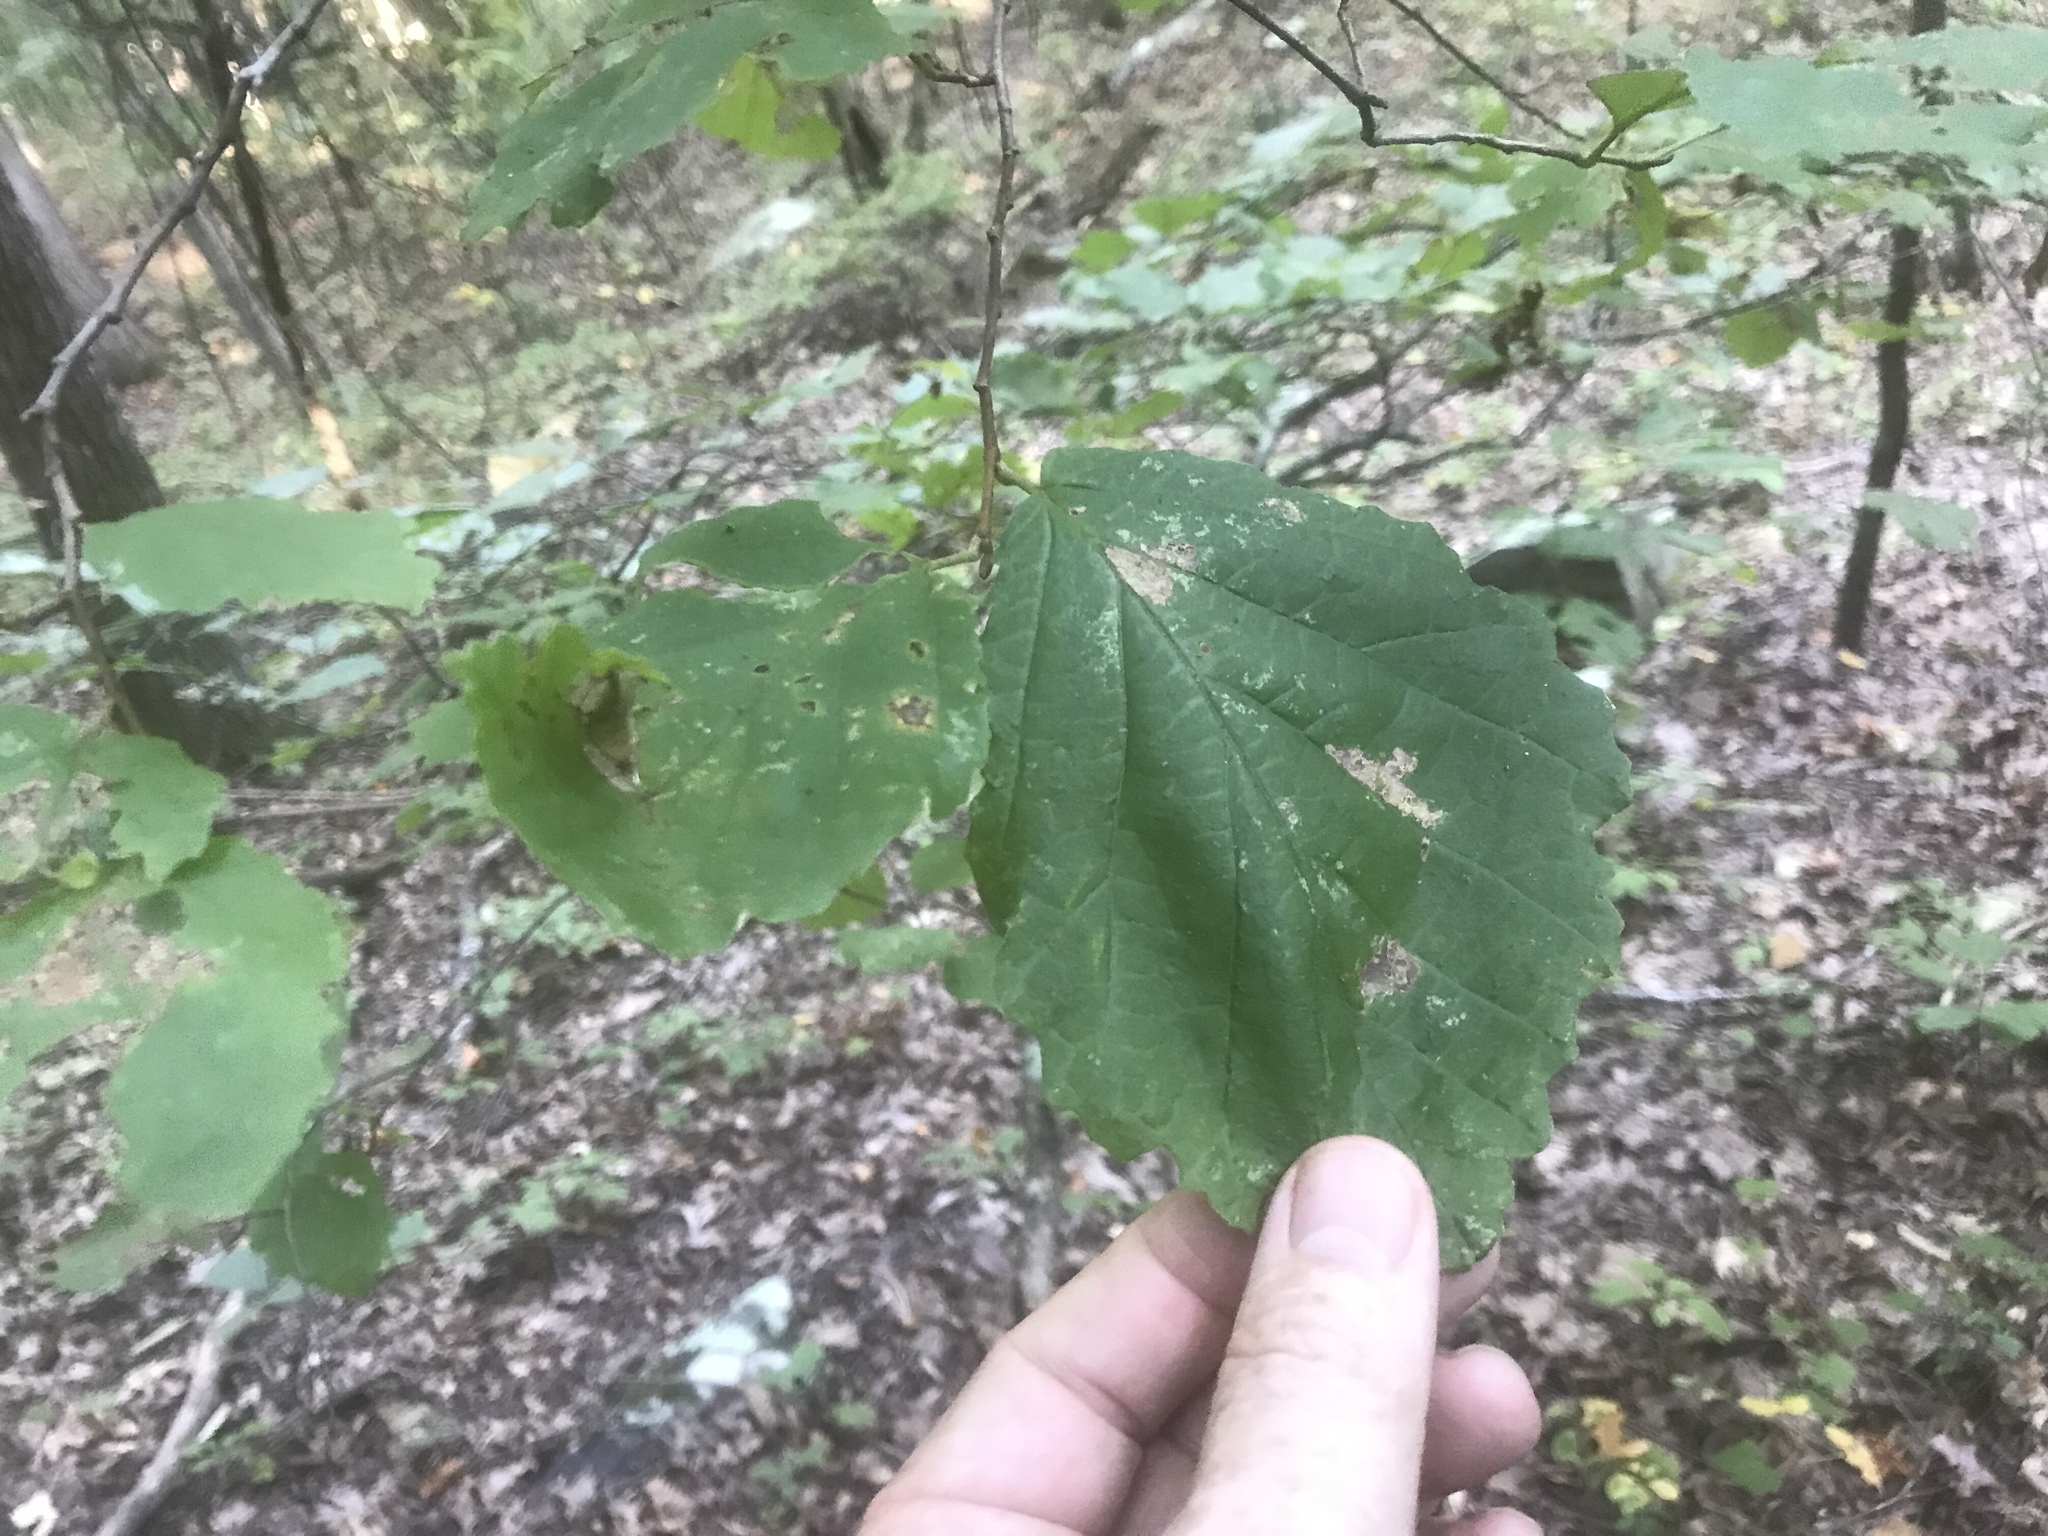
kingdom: Plantae
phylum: Tracheophyta
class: Magnoliopsida
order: Saxifragales
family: Hamamelidaceae
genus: Hamamelis
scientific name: Hamamelis virginiana
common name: Witch-hazel
